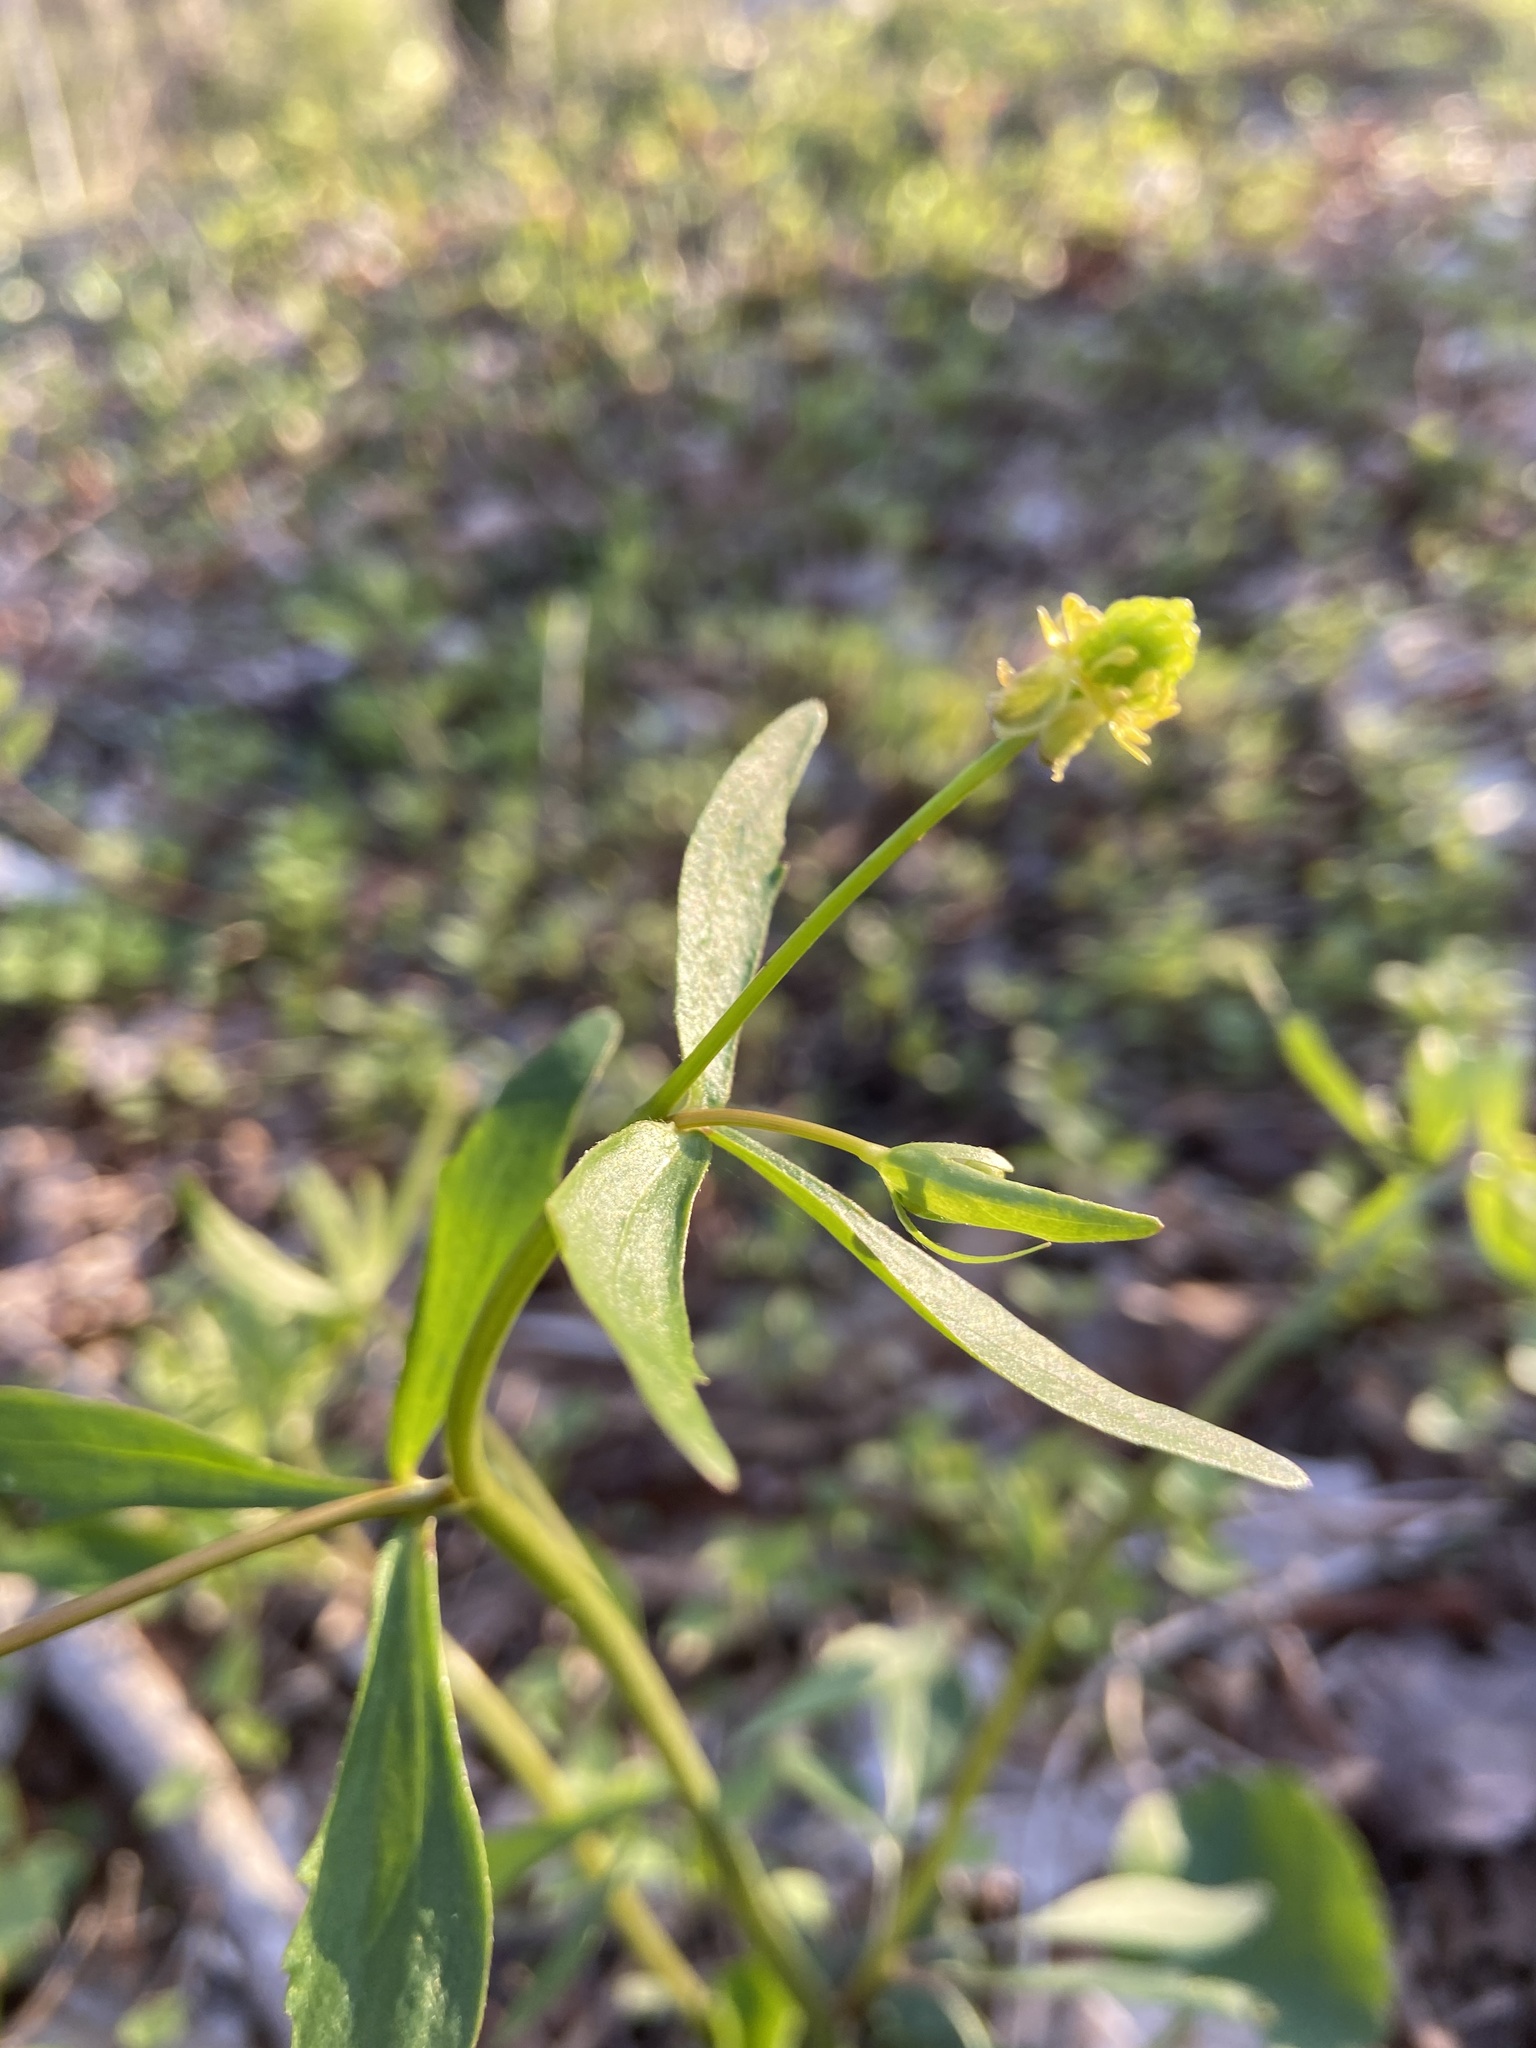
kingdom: Plantae
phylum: Tracheophyta
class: Magnoliopsida
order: Ranunculales
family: Ranunculaceae
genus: Ranunculus
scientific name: Ranunculus abortivus
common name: Early wood buttercup
